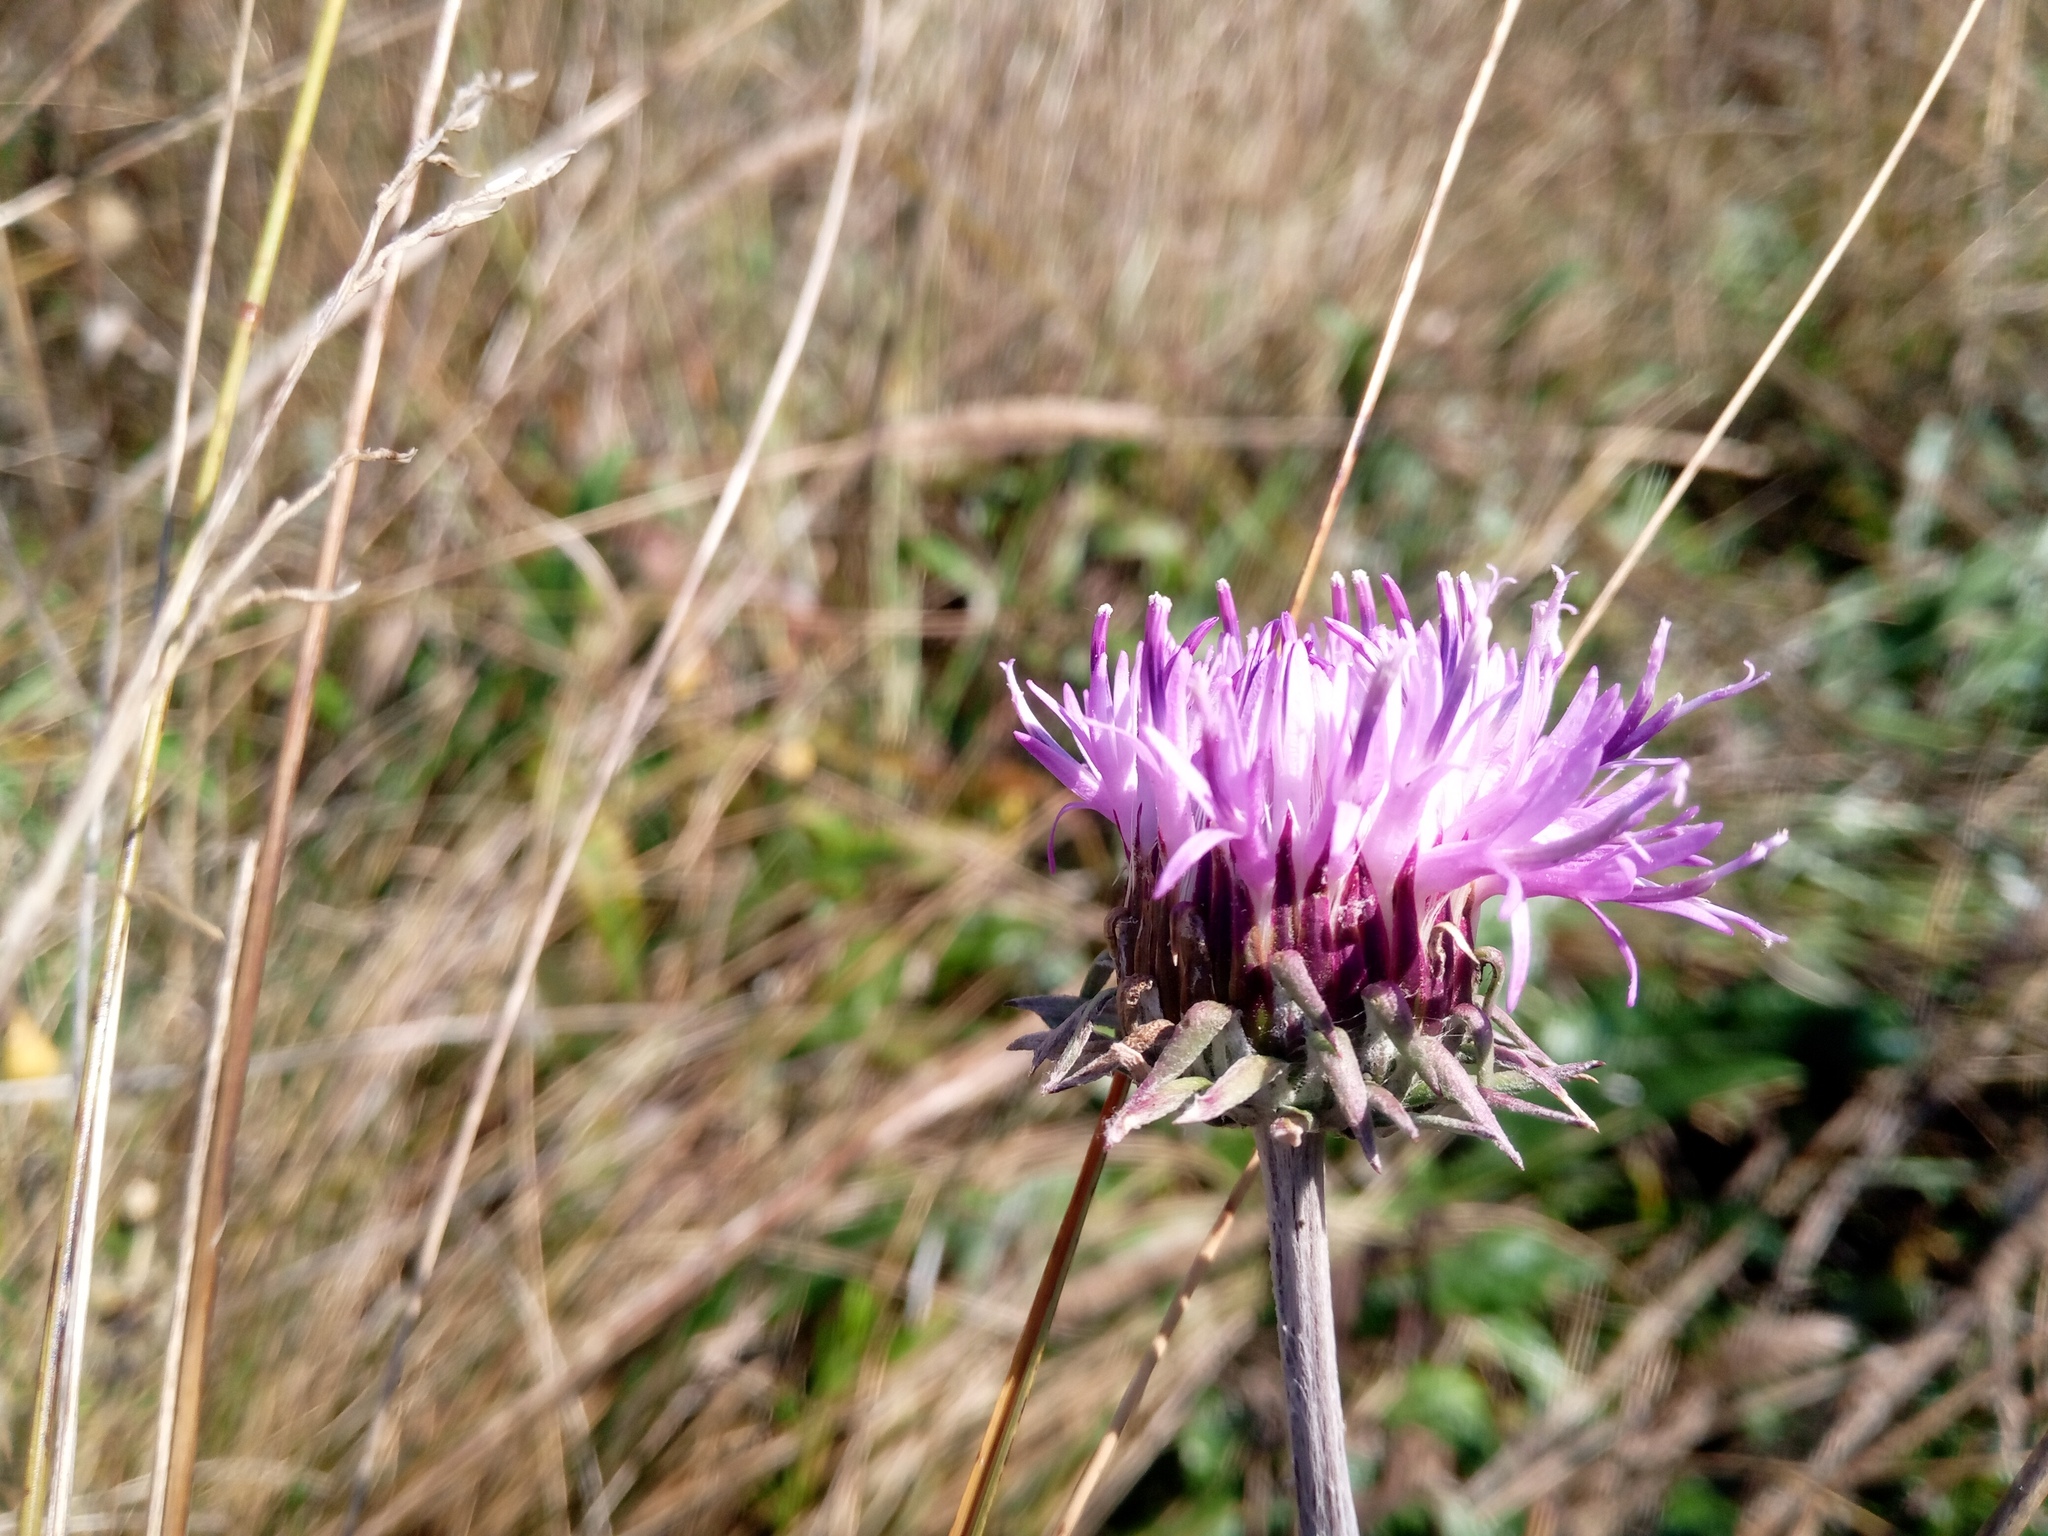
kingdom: Plantae
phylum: Tracheophyta
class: Magnoliopsida
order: Asterales
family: Asteraceae
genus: Jurinea
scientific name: Jurinea cyanoides
